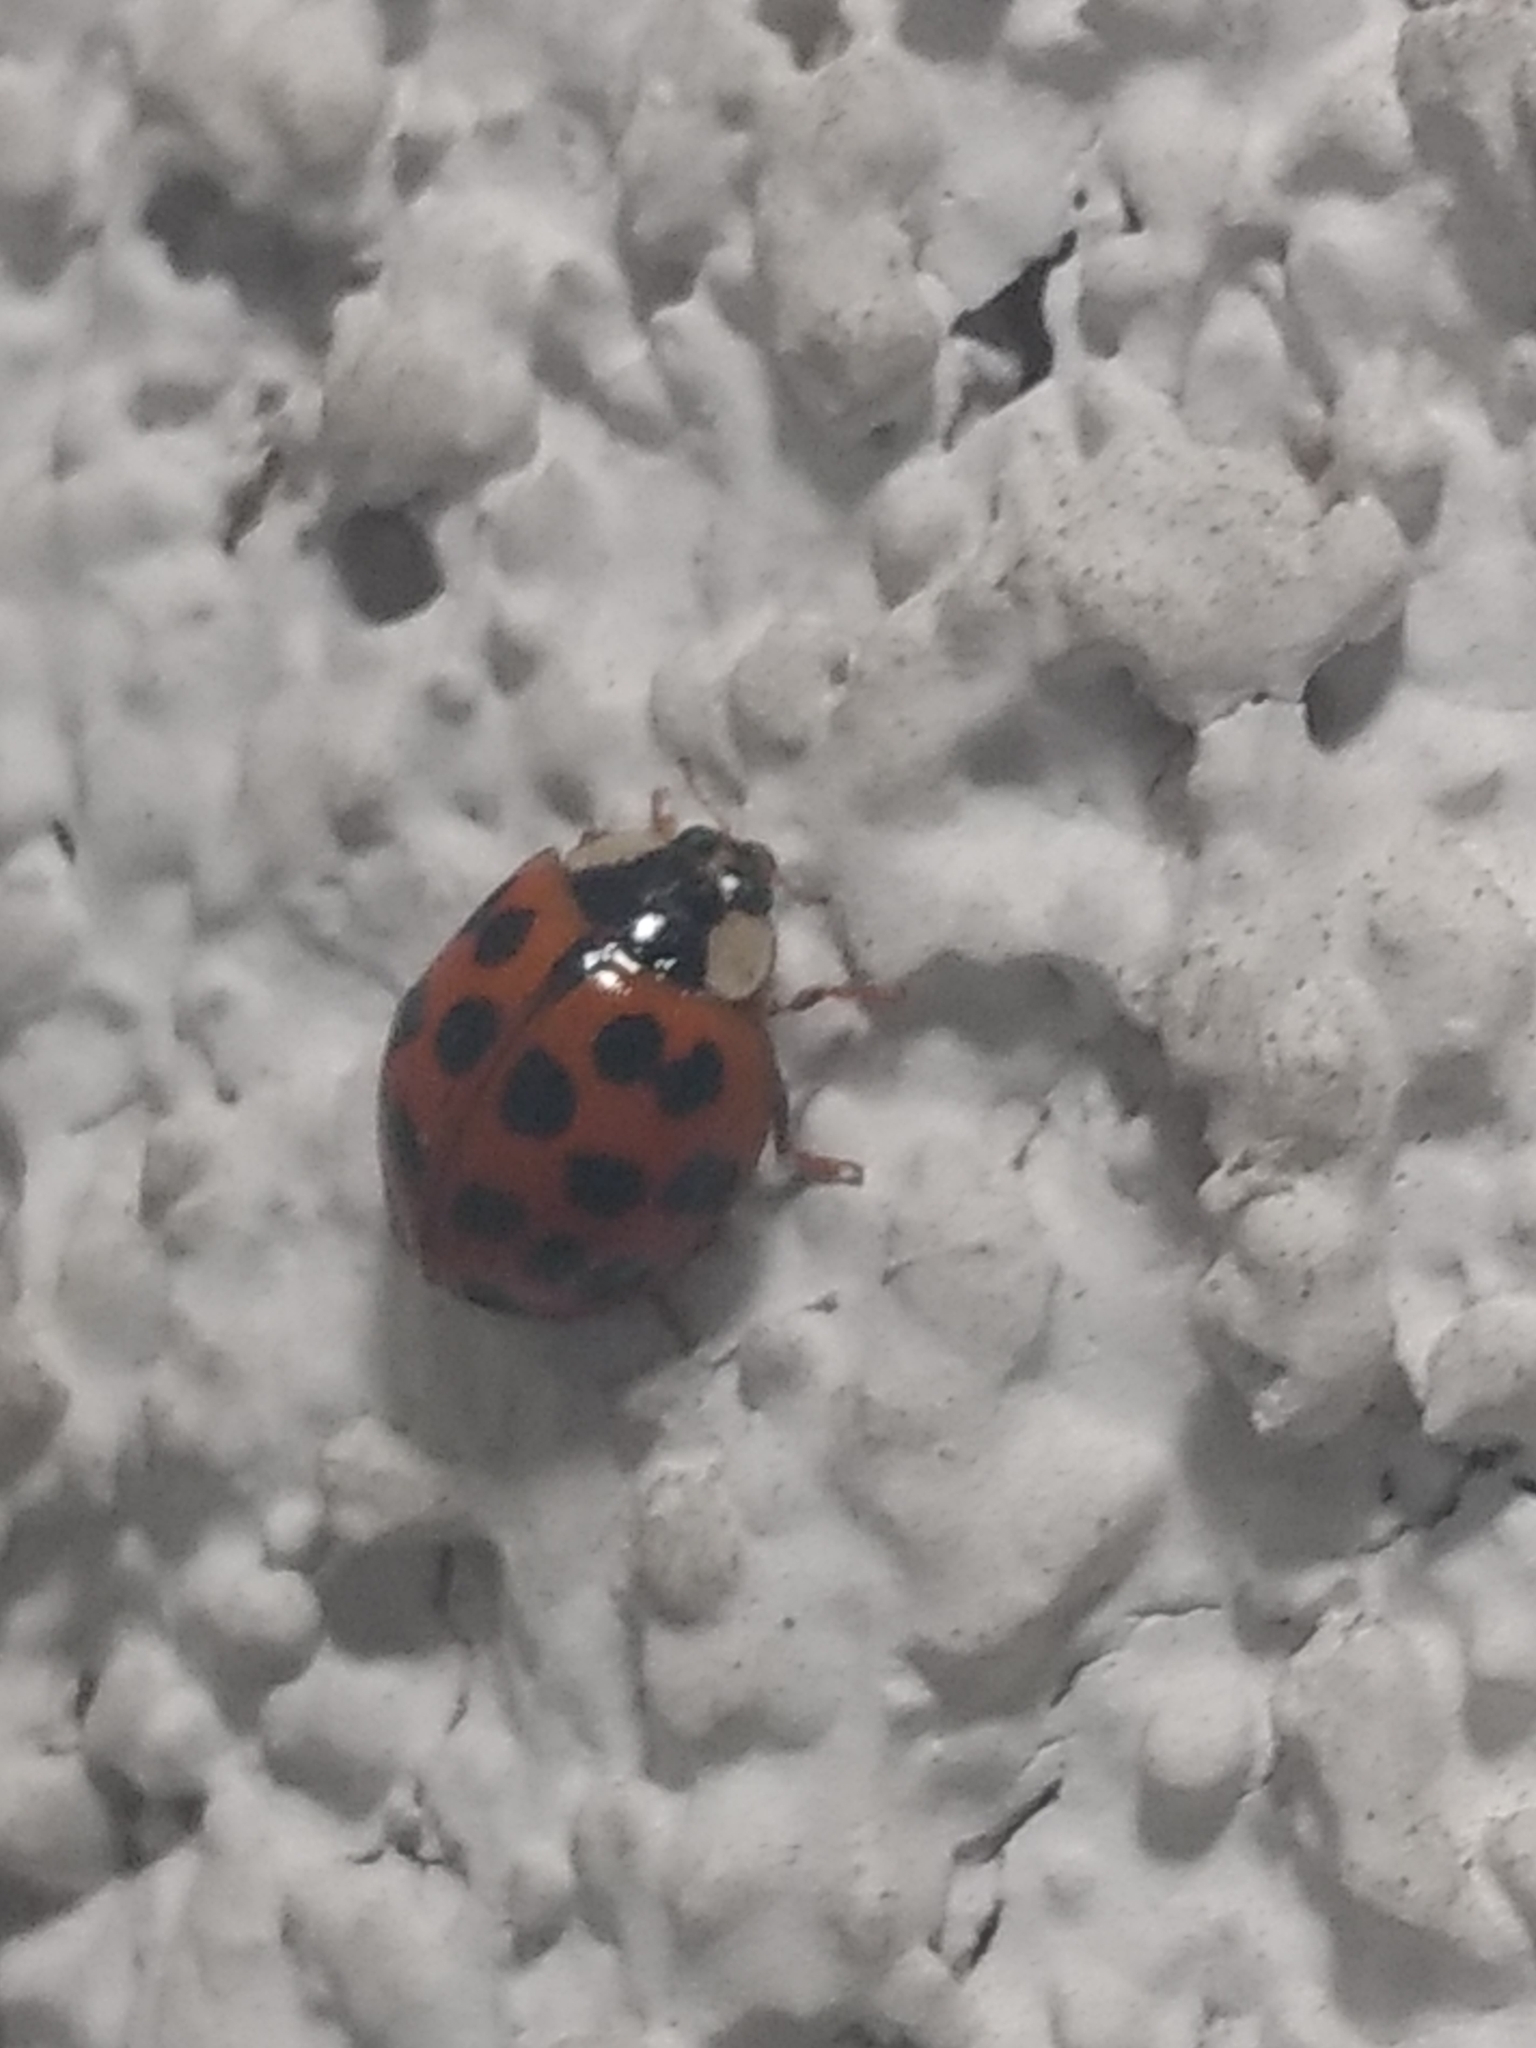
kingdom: Animalia
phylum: Arthropoda
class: Insecta
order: Coleoptera
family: Coccinellidae
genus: Harmonia
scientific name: Harmonia axyridis
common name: Harlequin ladybird
